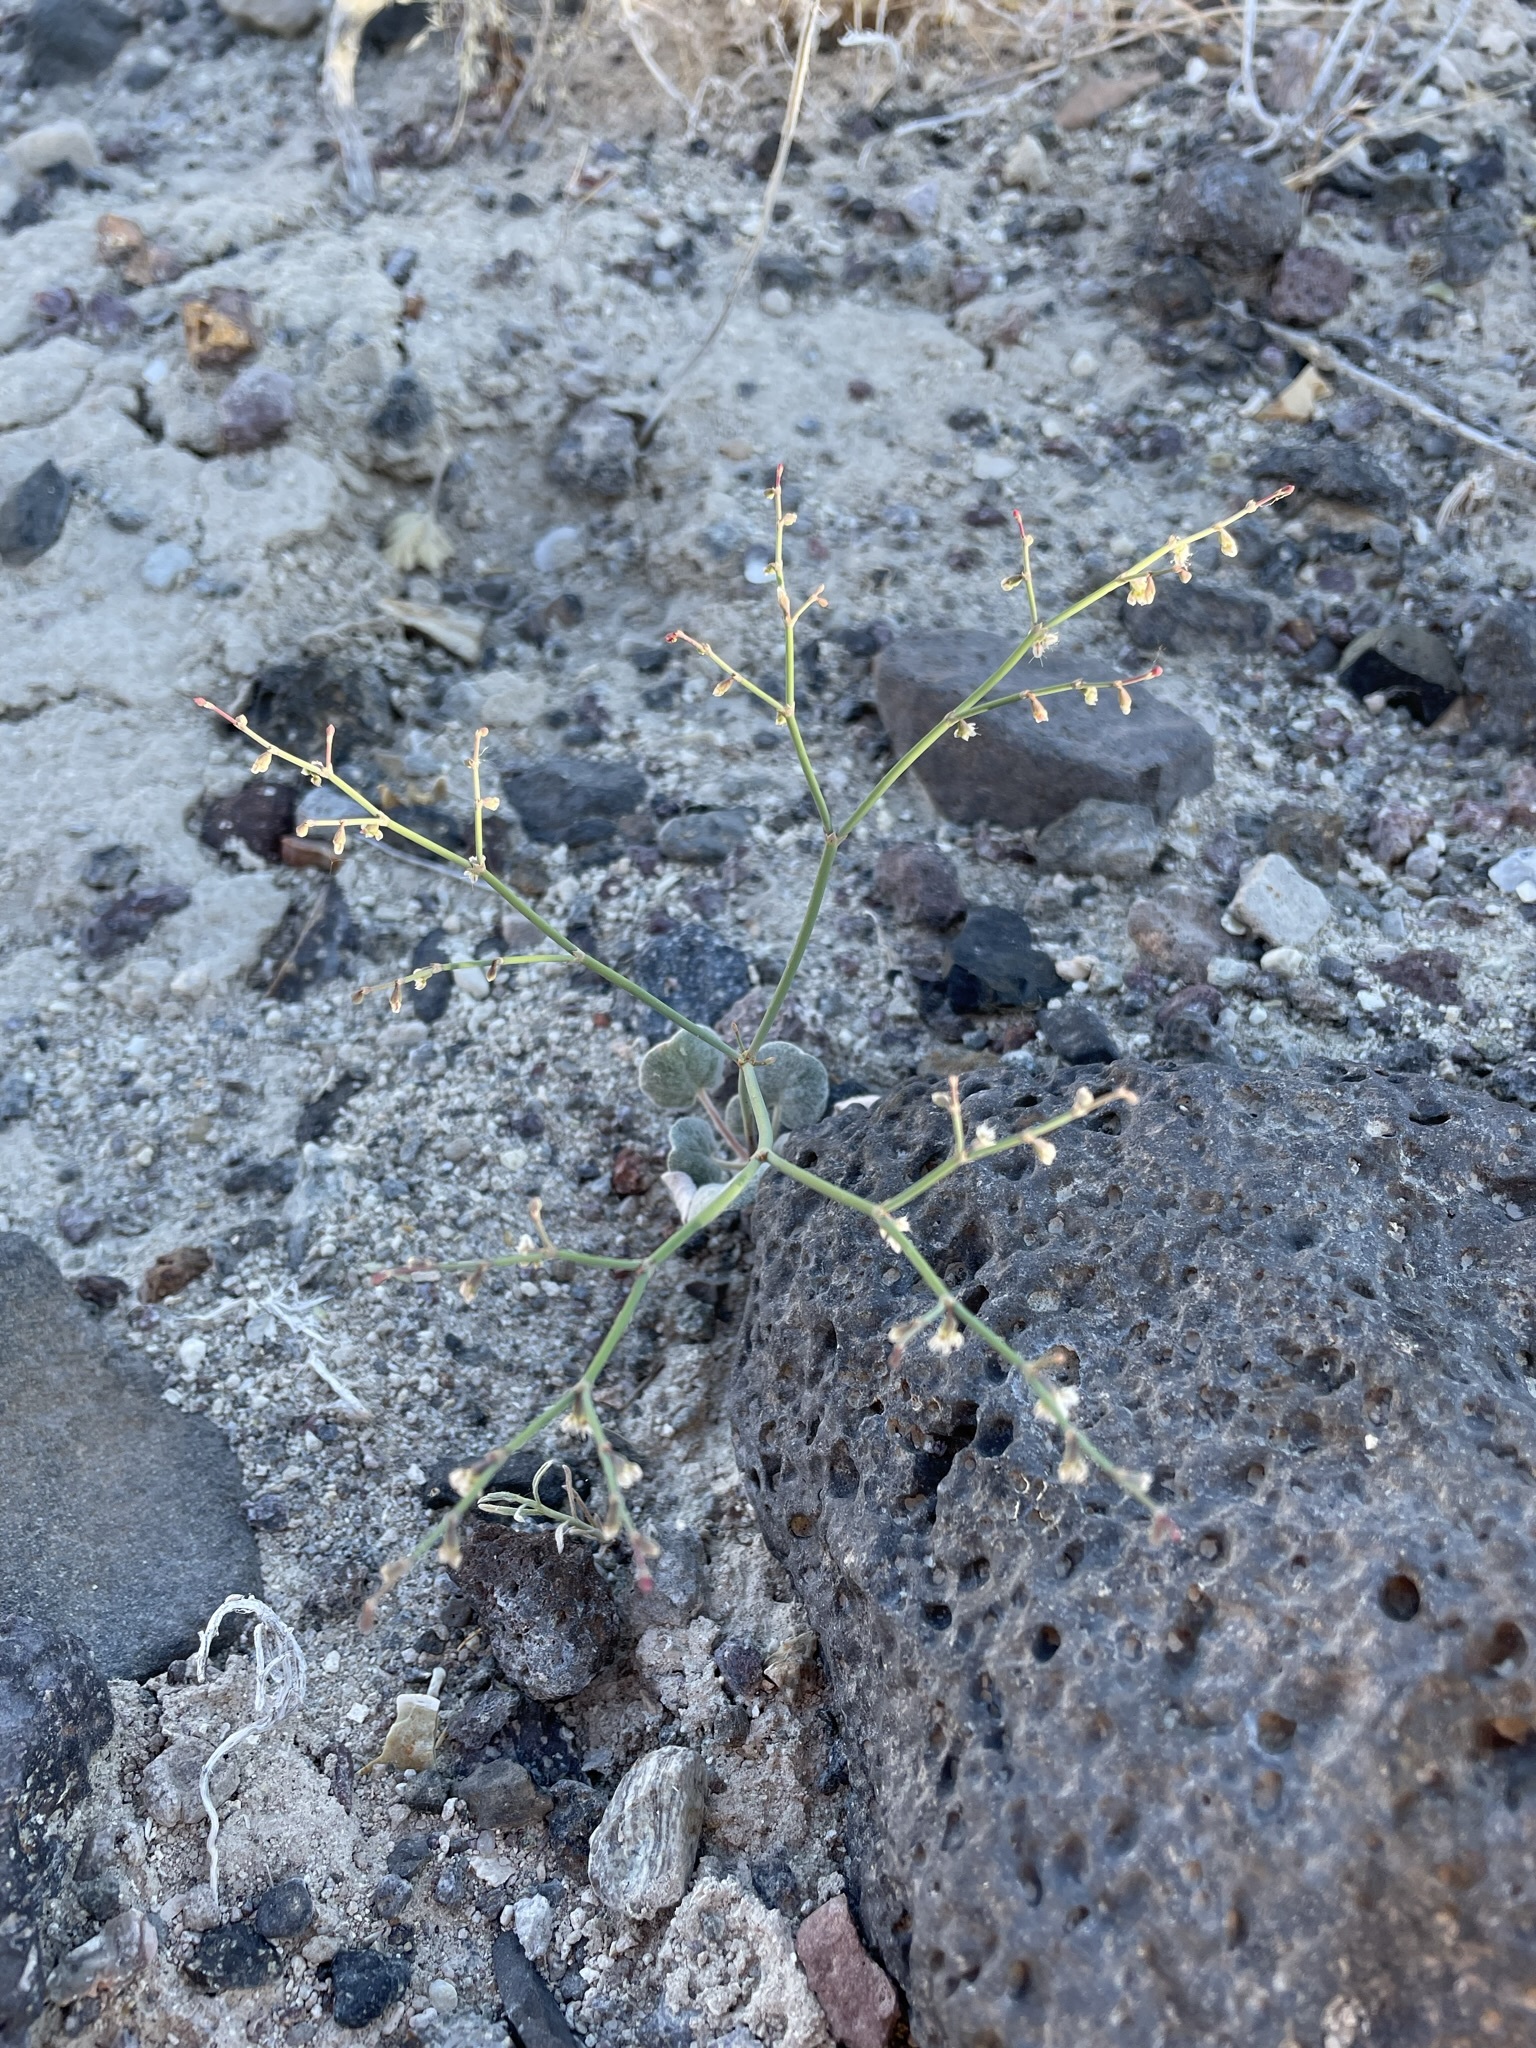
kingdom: Plantae
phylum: Tracheophyta
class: Magnoliopsida
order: Caryophyllales
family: Polygonaceae
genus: Eriogonum
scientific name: Eriogonum deflexum
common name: Skeleton-weed
